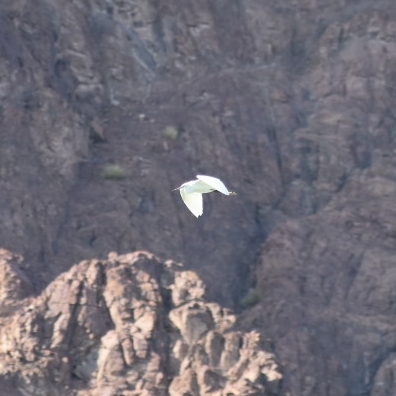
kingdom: Animalia
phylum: Chordata
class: Aves
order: Pelecaniformes
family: Ardeidae
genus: Egretta
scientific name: Egretta garzetta
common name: Little egret
